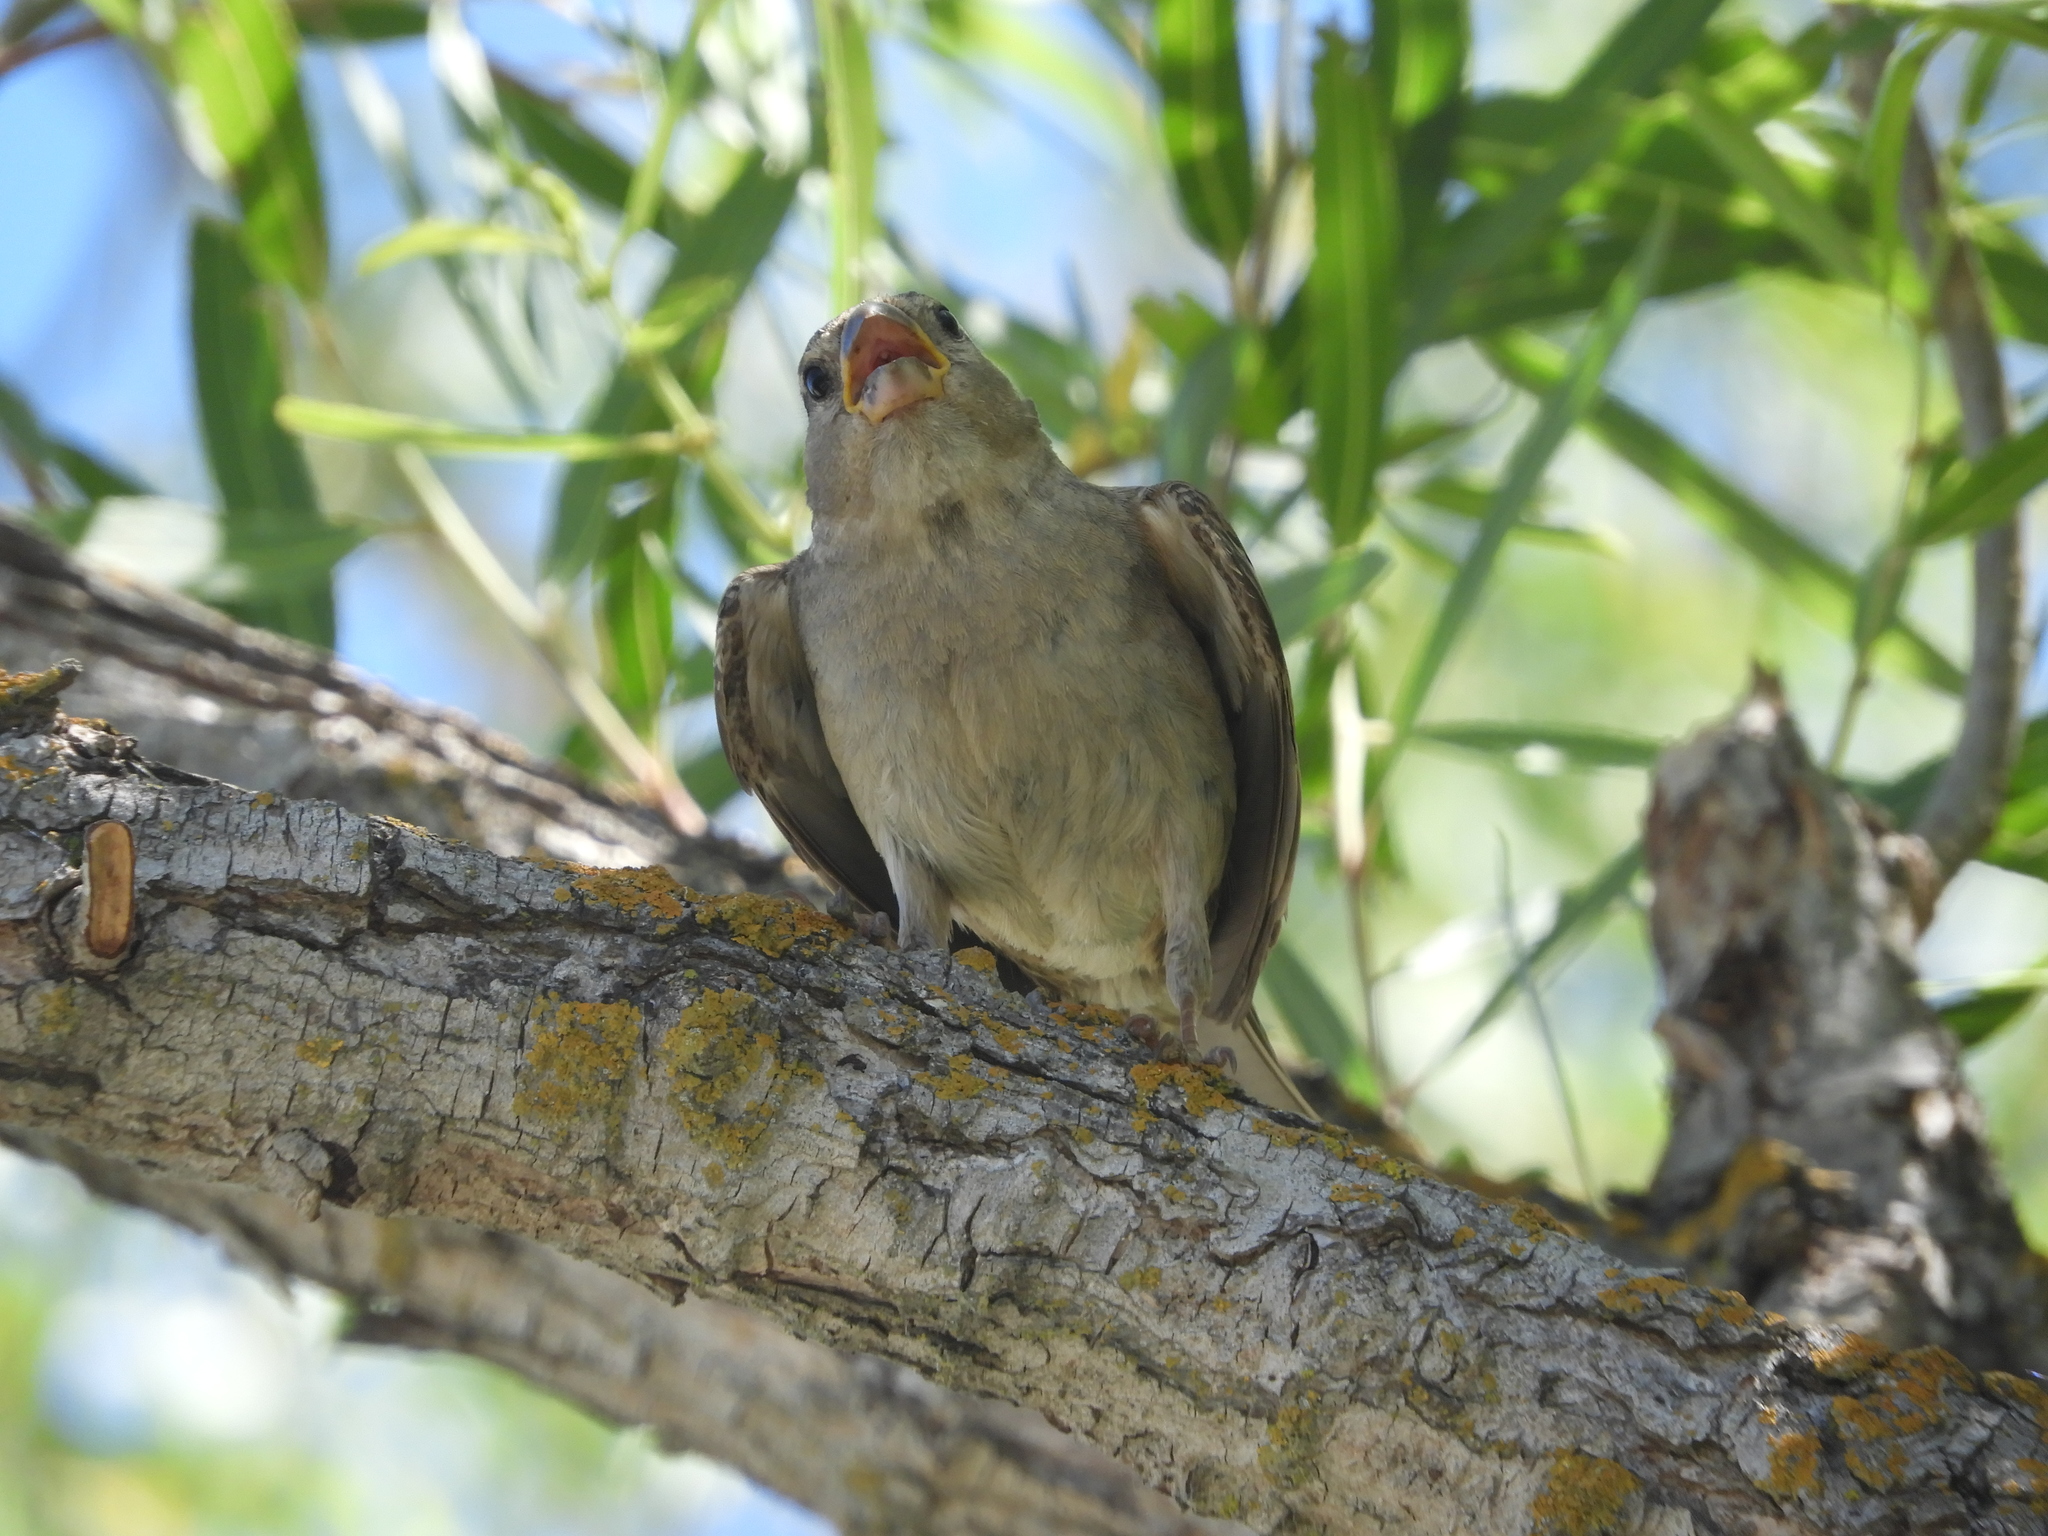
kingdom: Animalia
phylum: Chordata
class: Aves
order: Passeriformes
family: Passeridae
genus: Passer
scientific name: Passer domesticus
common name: House sparrow
